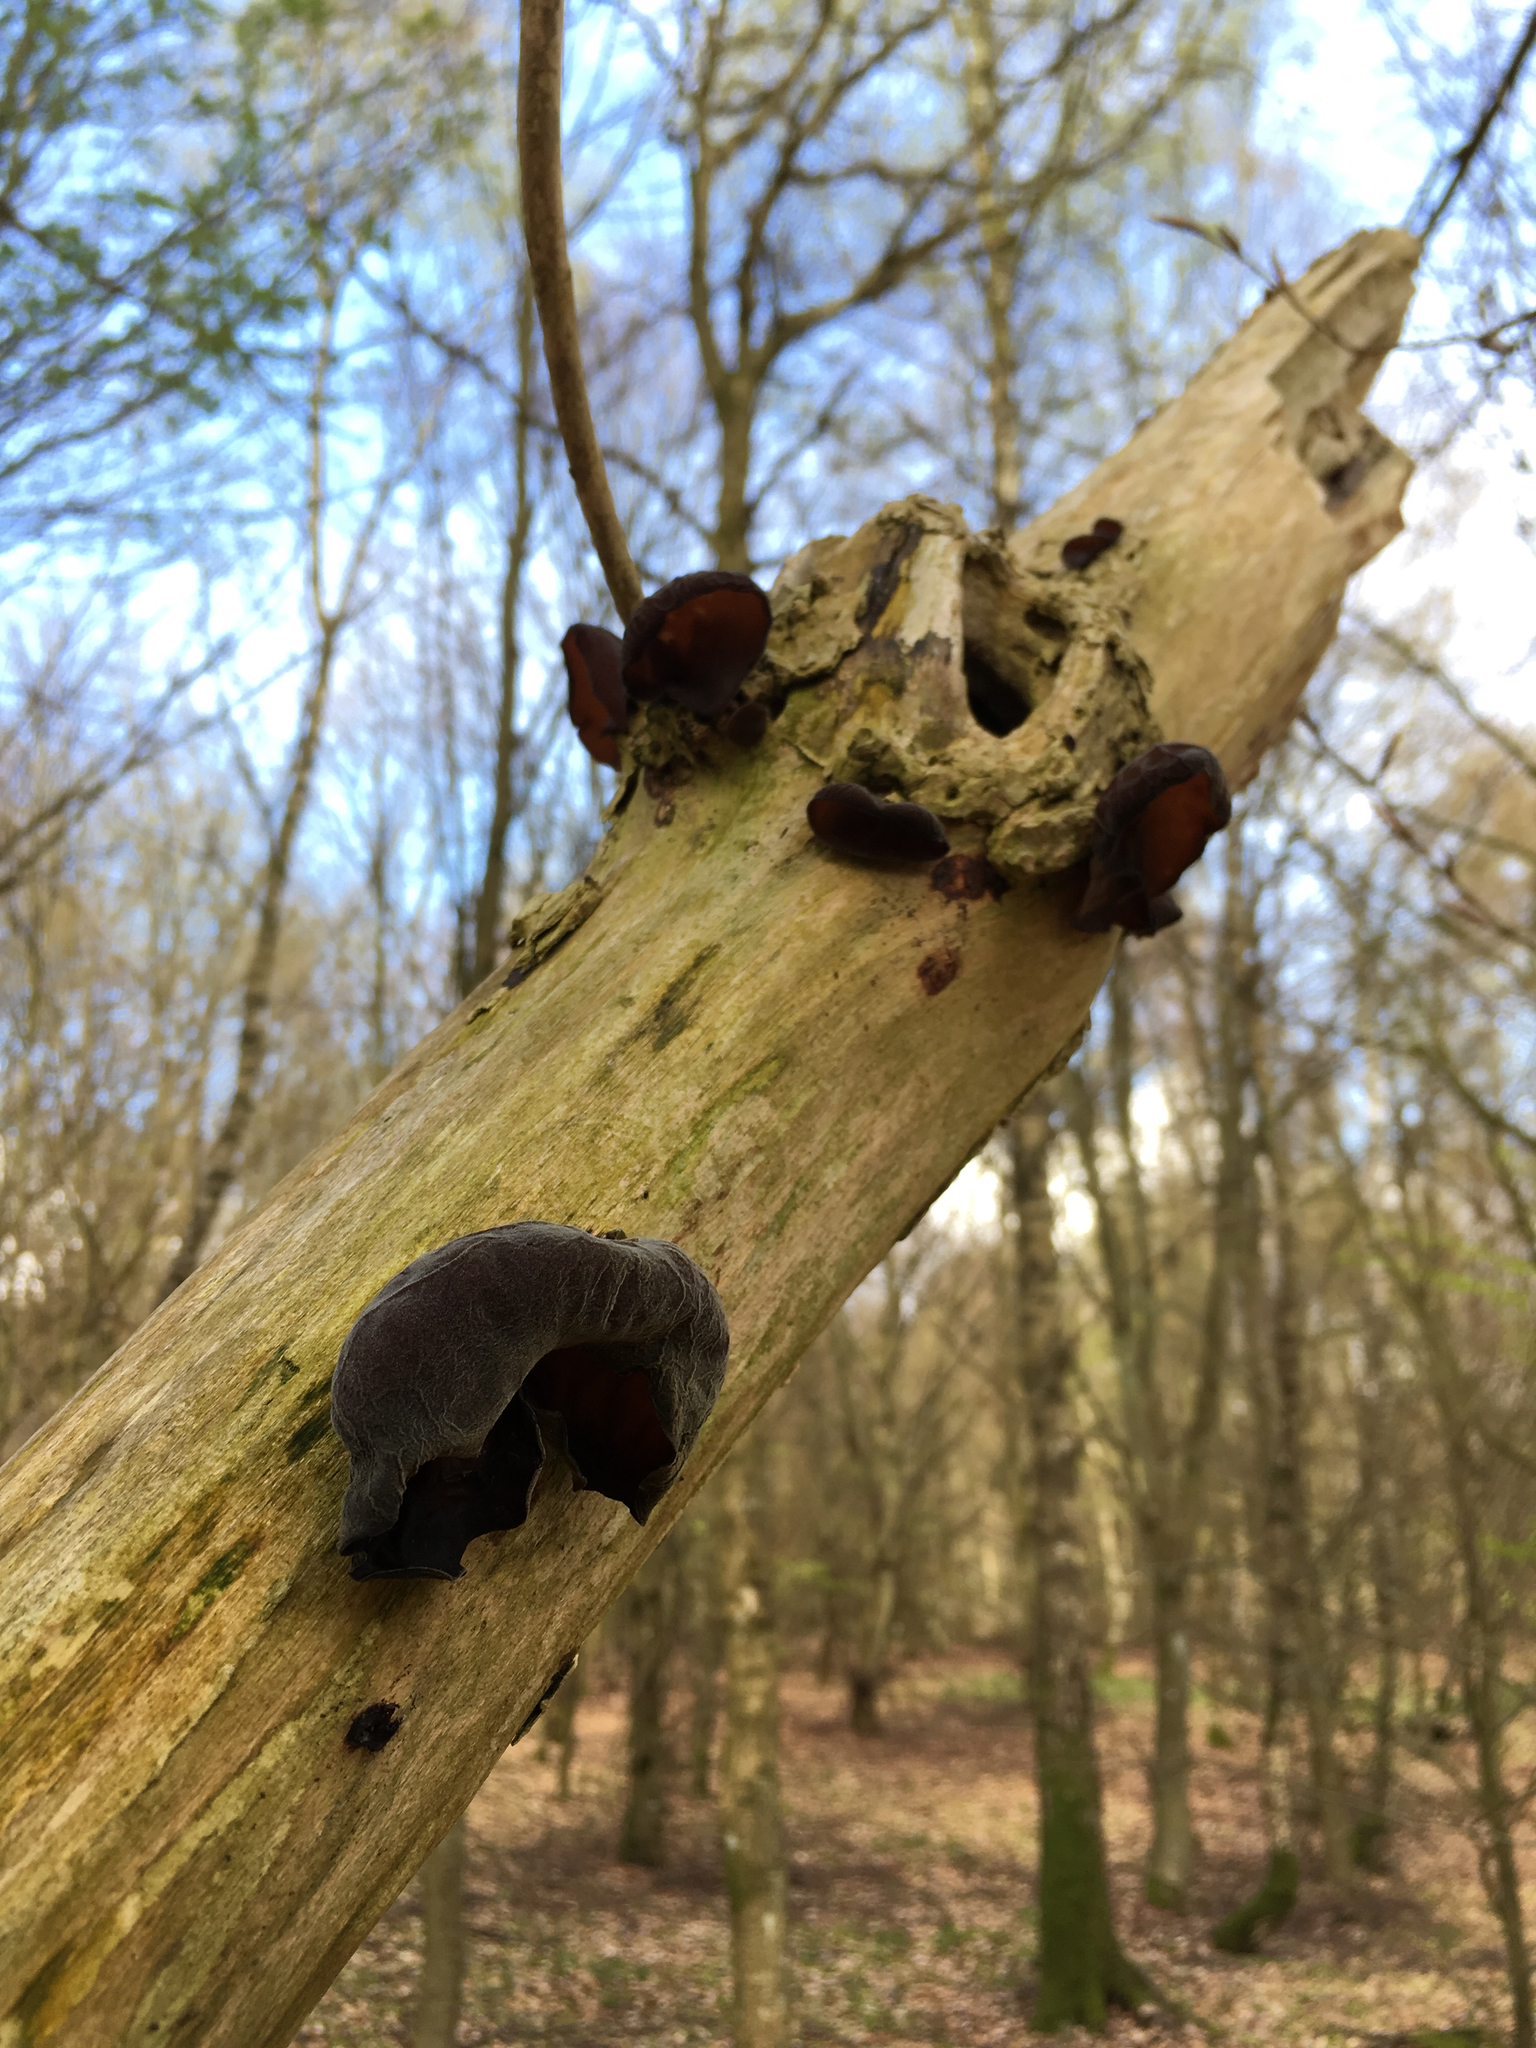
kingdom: Fungi
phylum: Basidiomycota
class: Agaricomycetes
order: Auriculariales
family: Auriculariaceae
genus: Auricularia
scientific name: Auricularia auricula-judae
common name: Jelly ear
